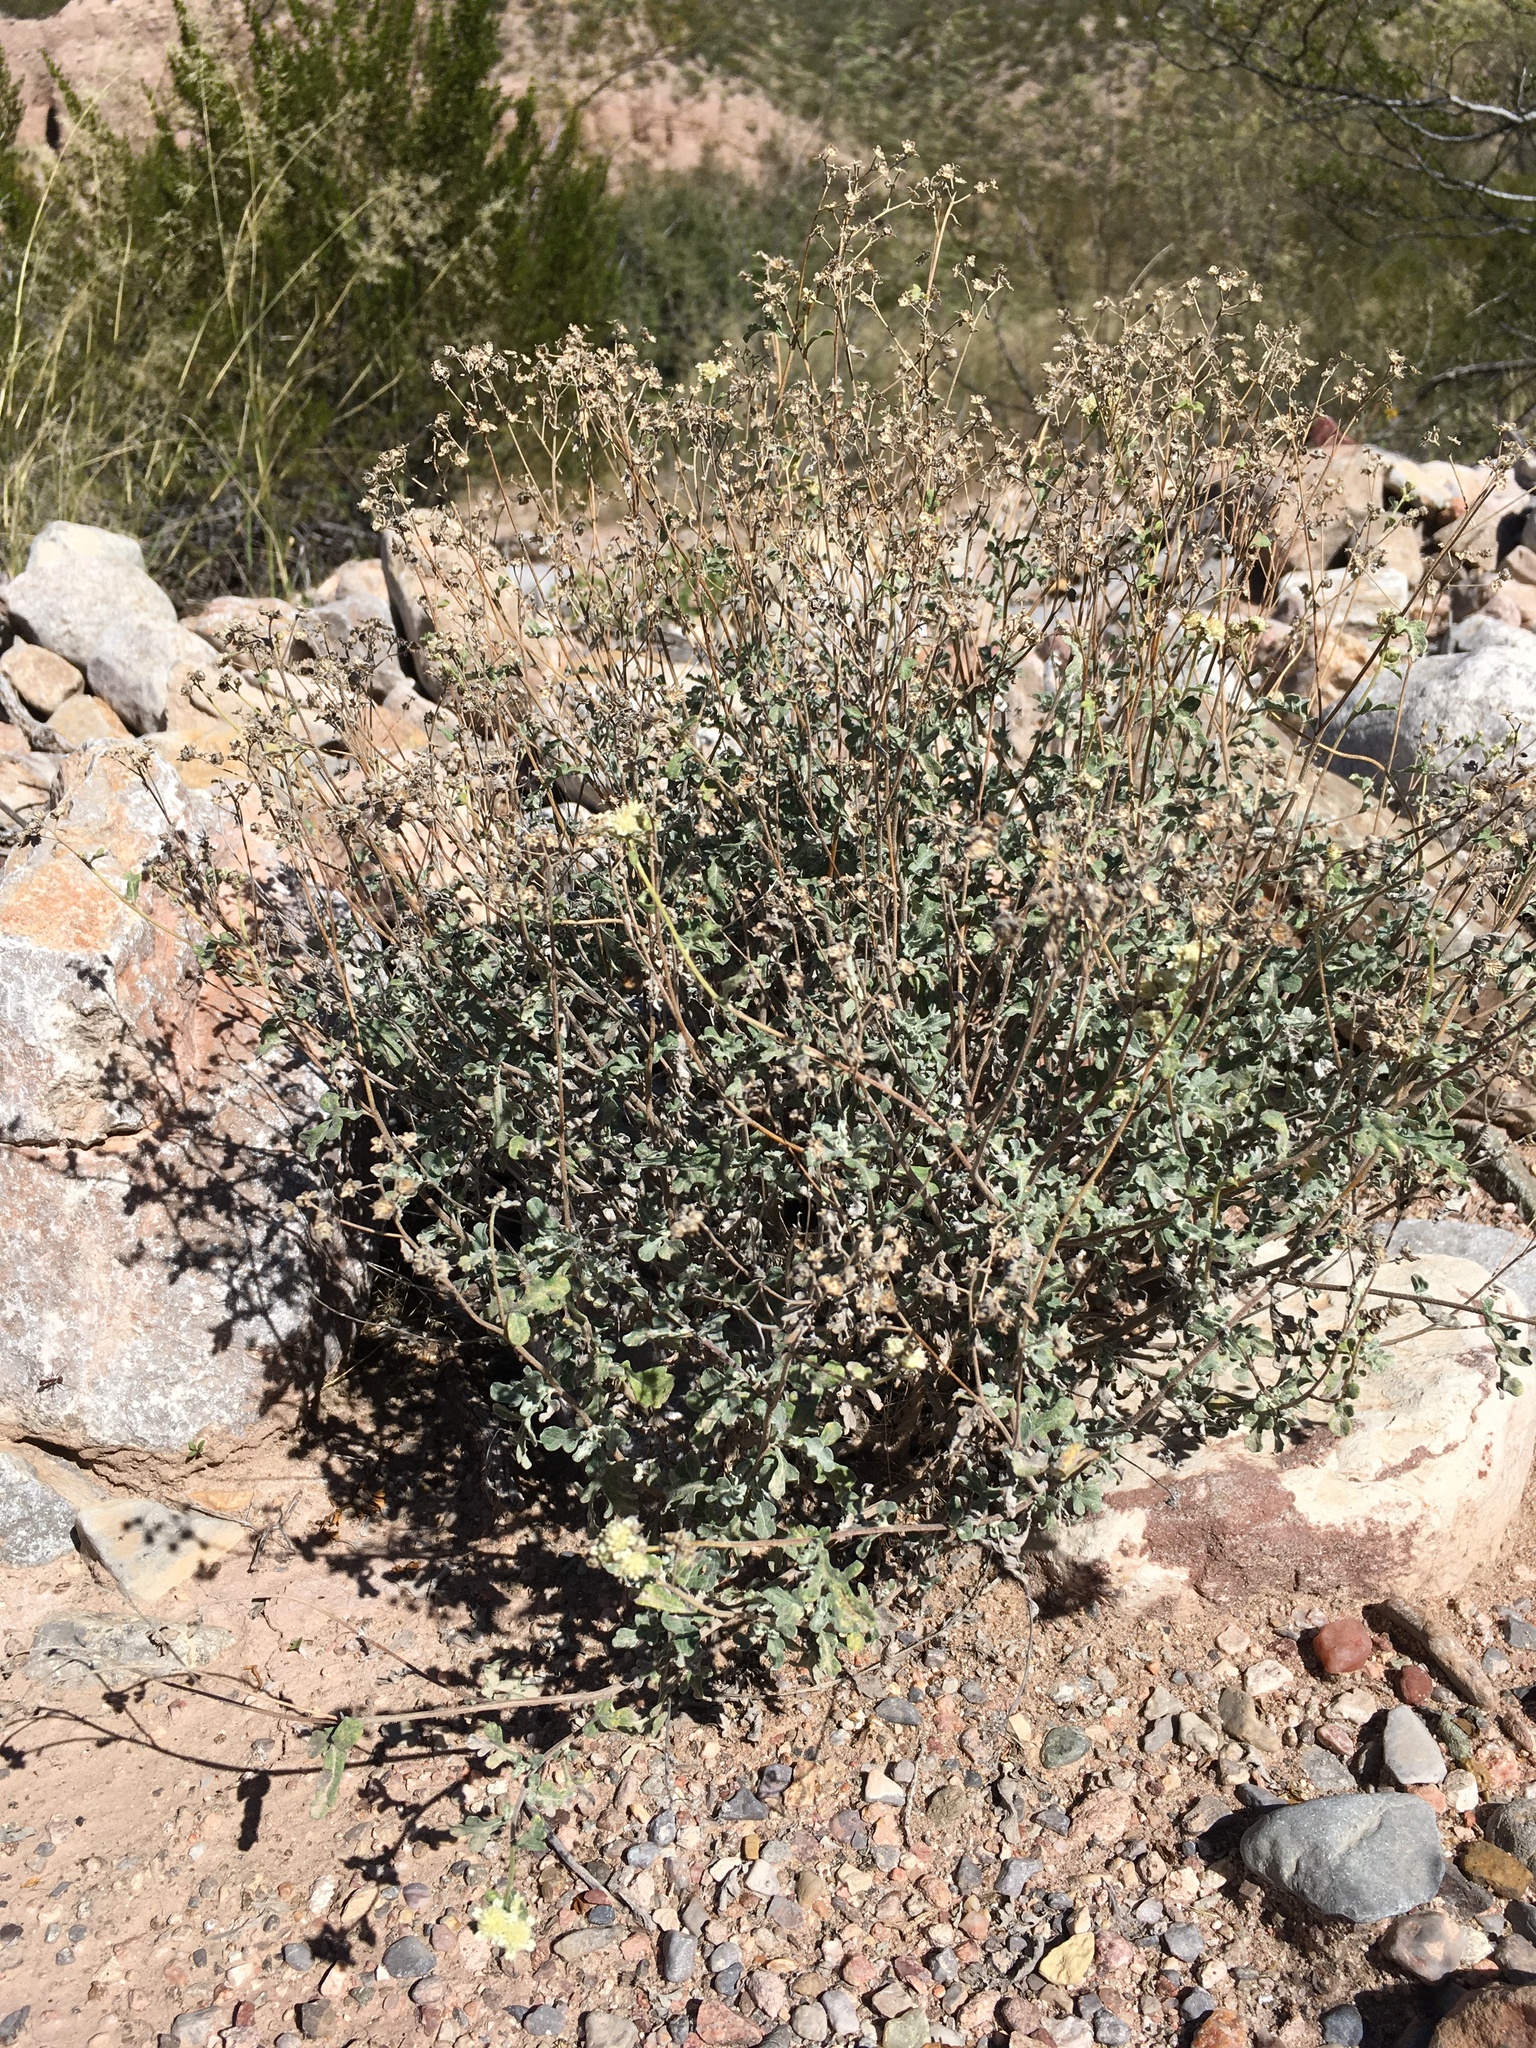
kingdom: Plantae
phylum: Tracheophyta
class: Magnoliopsida
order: Asterales
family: Asteraceae
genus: Parthenium
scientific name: Parthenium incanum
